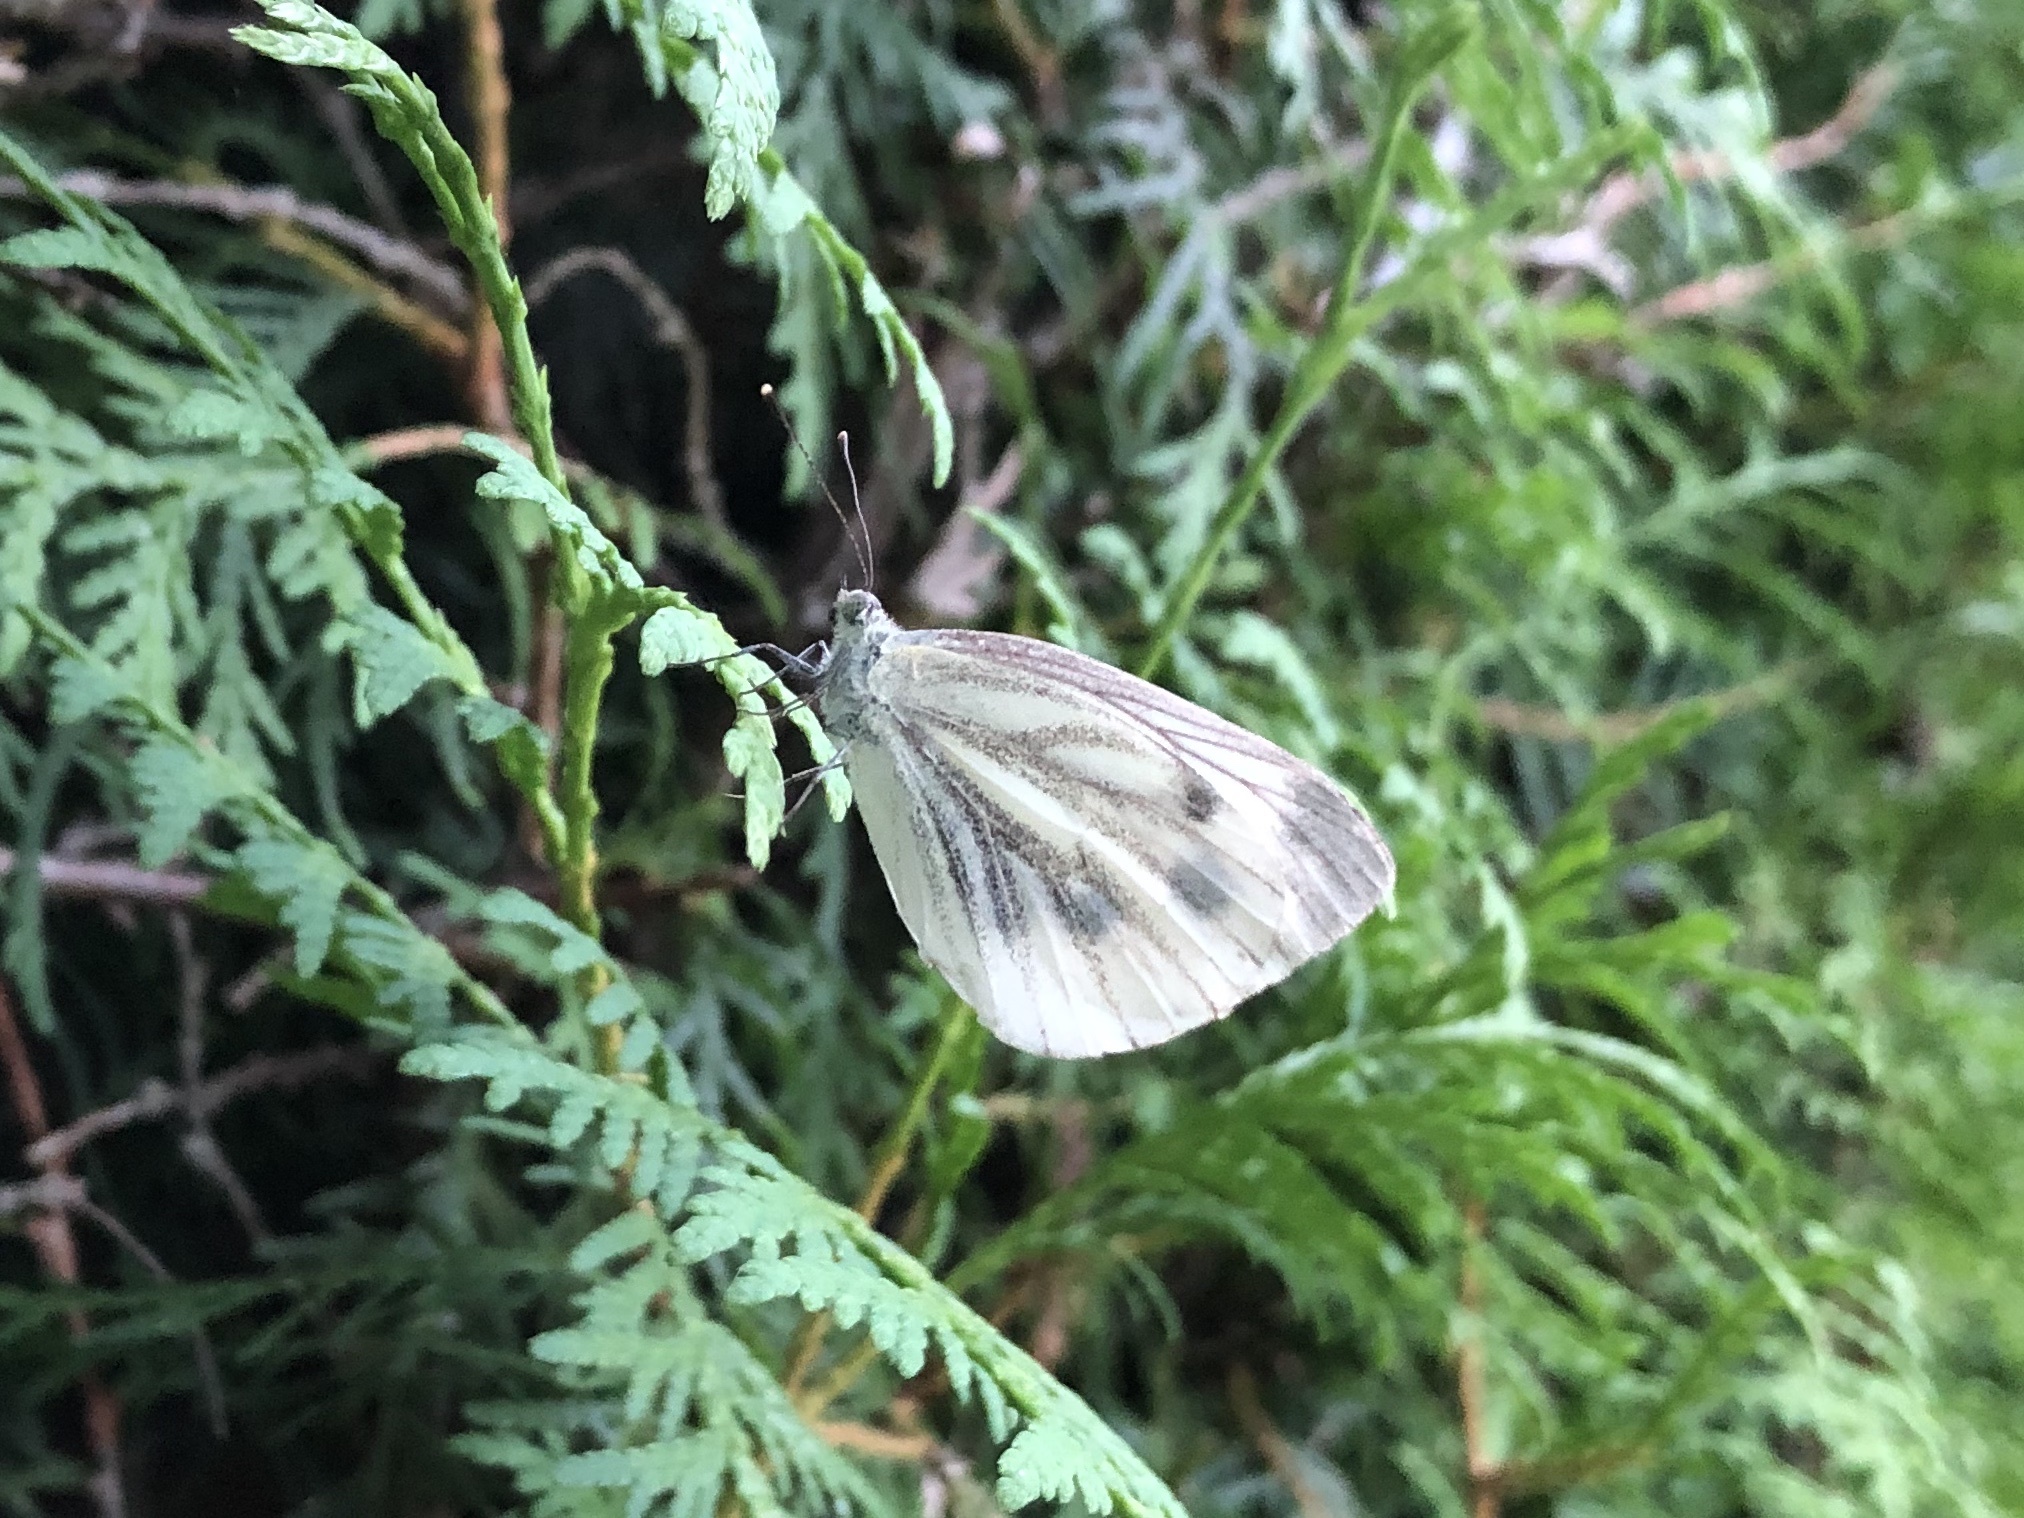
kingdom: Animalia
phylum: Arthropoda
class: Insecta
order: Lepidoptera
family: Pieridae
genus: Pieris
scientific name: Pieris napi
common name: Green-veined white
